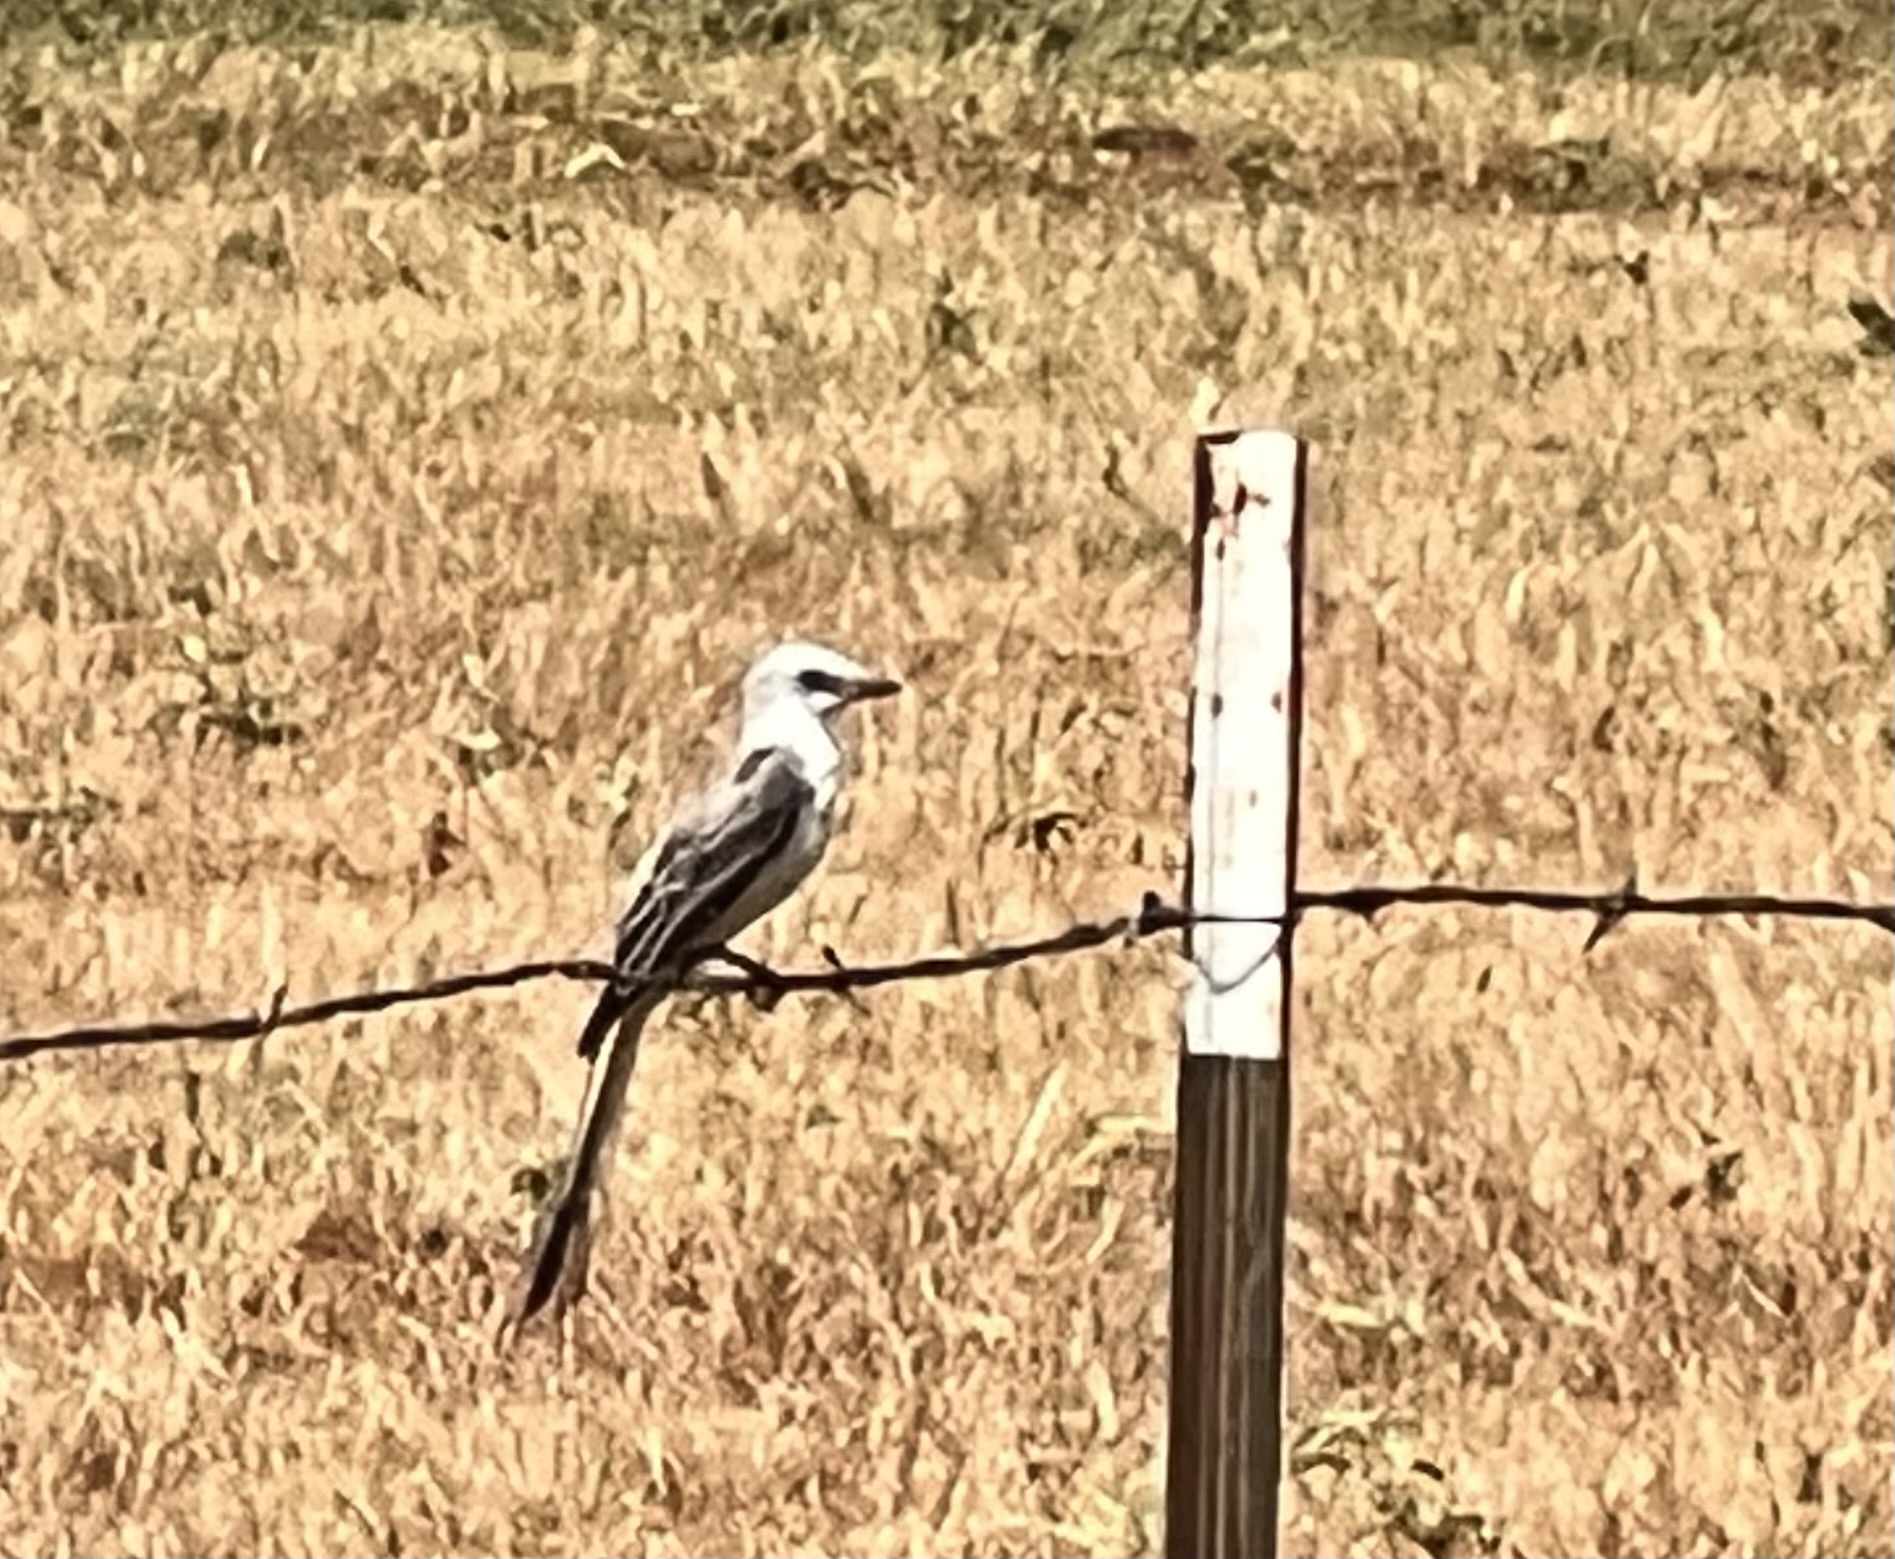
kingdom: Animalia
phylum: Chordata
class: Aves
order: Passeriformes
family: Tyrannidae
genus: Tyrannus
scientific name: Tyrannus forficatus
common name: Scissor-tailed flycatcher
